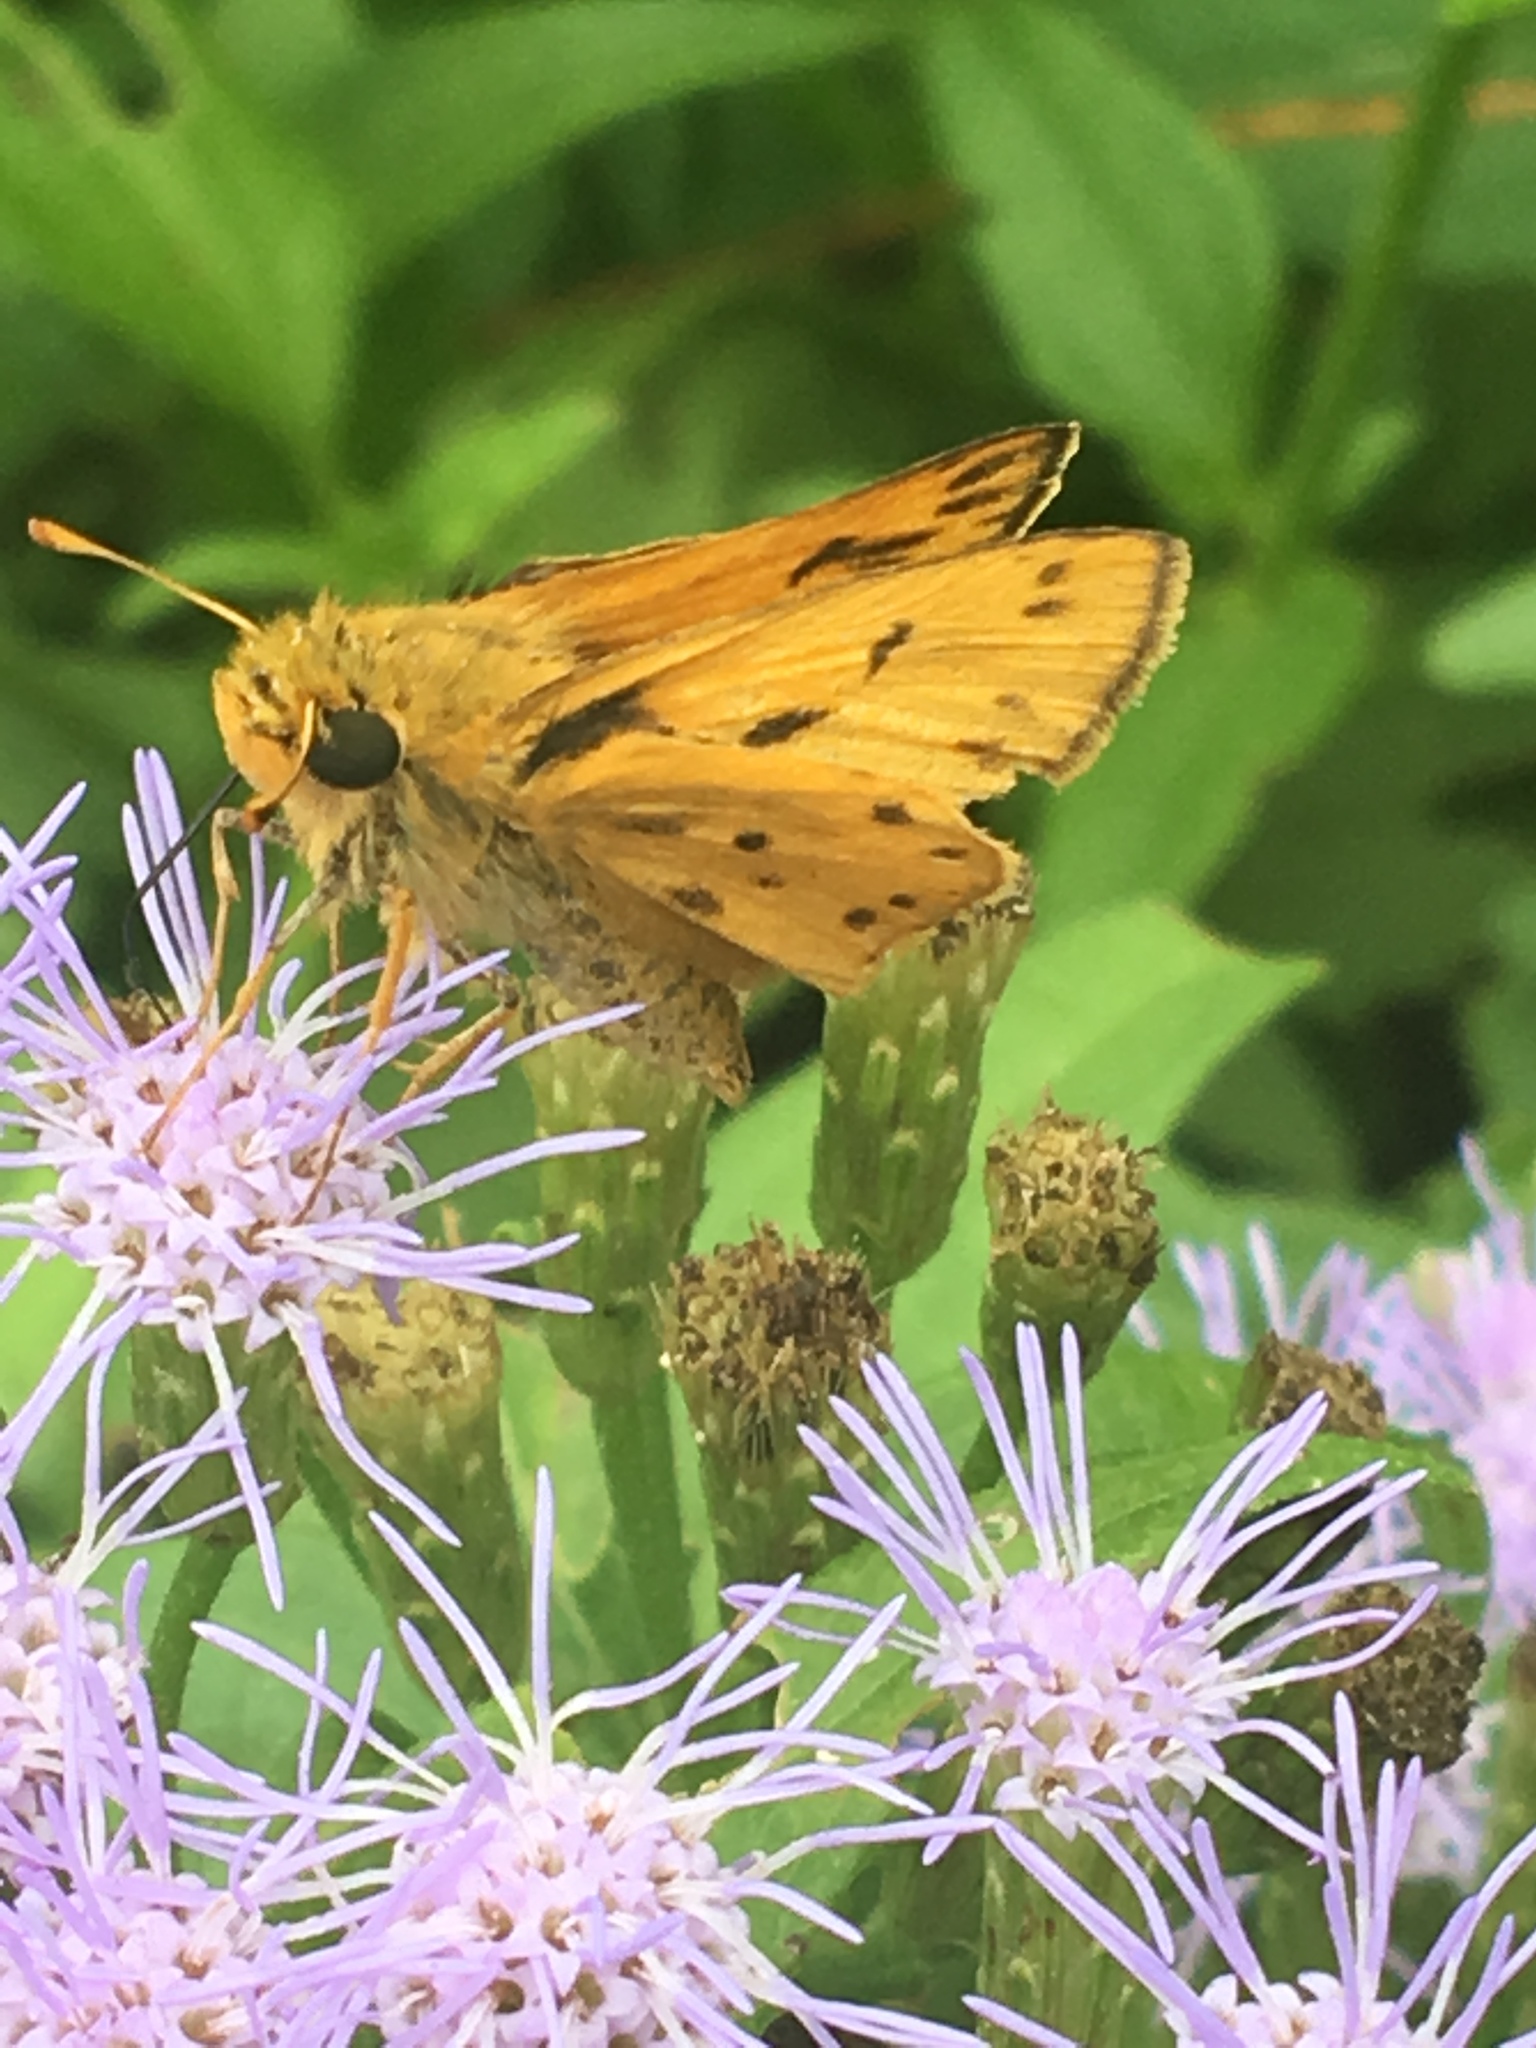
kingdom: Animalia
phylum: Arthropoda
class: Insecta
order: Lepidoptera
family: Hesperiidae
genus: Hylephila
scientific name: Hylephila phyleus
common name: Fiery skipper
